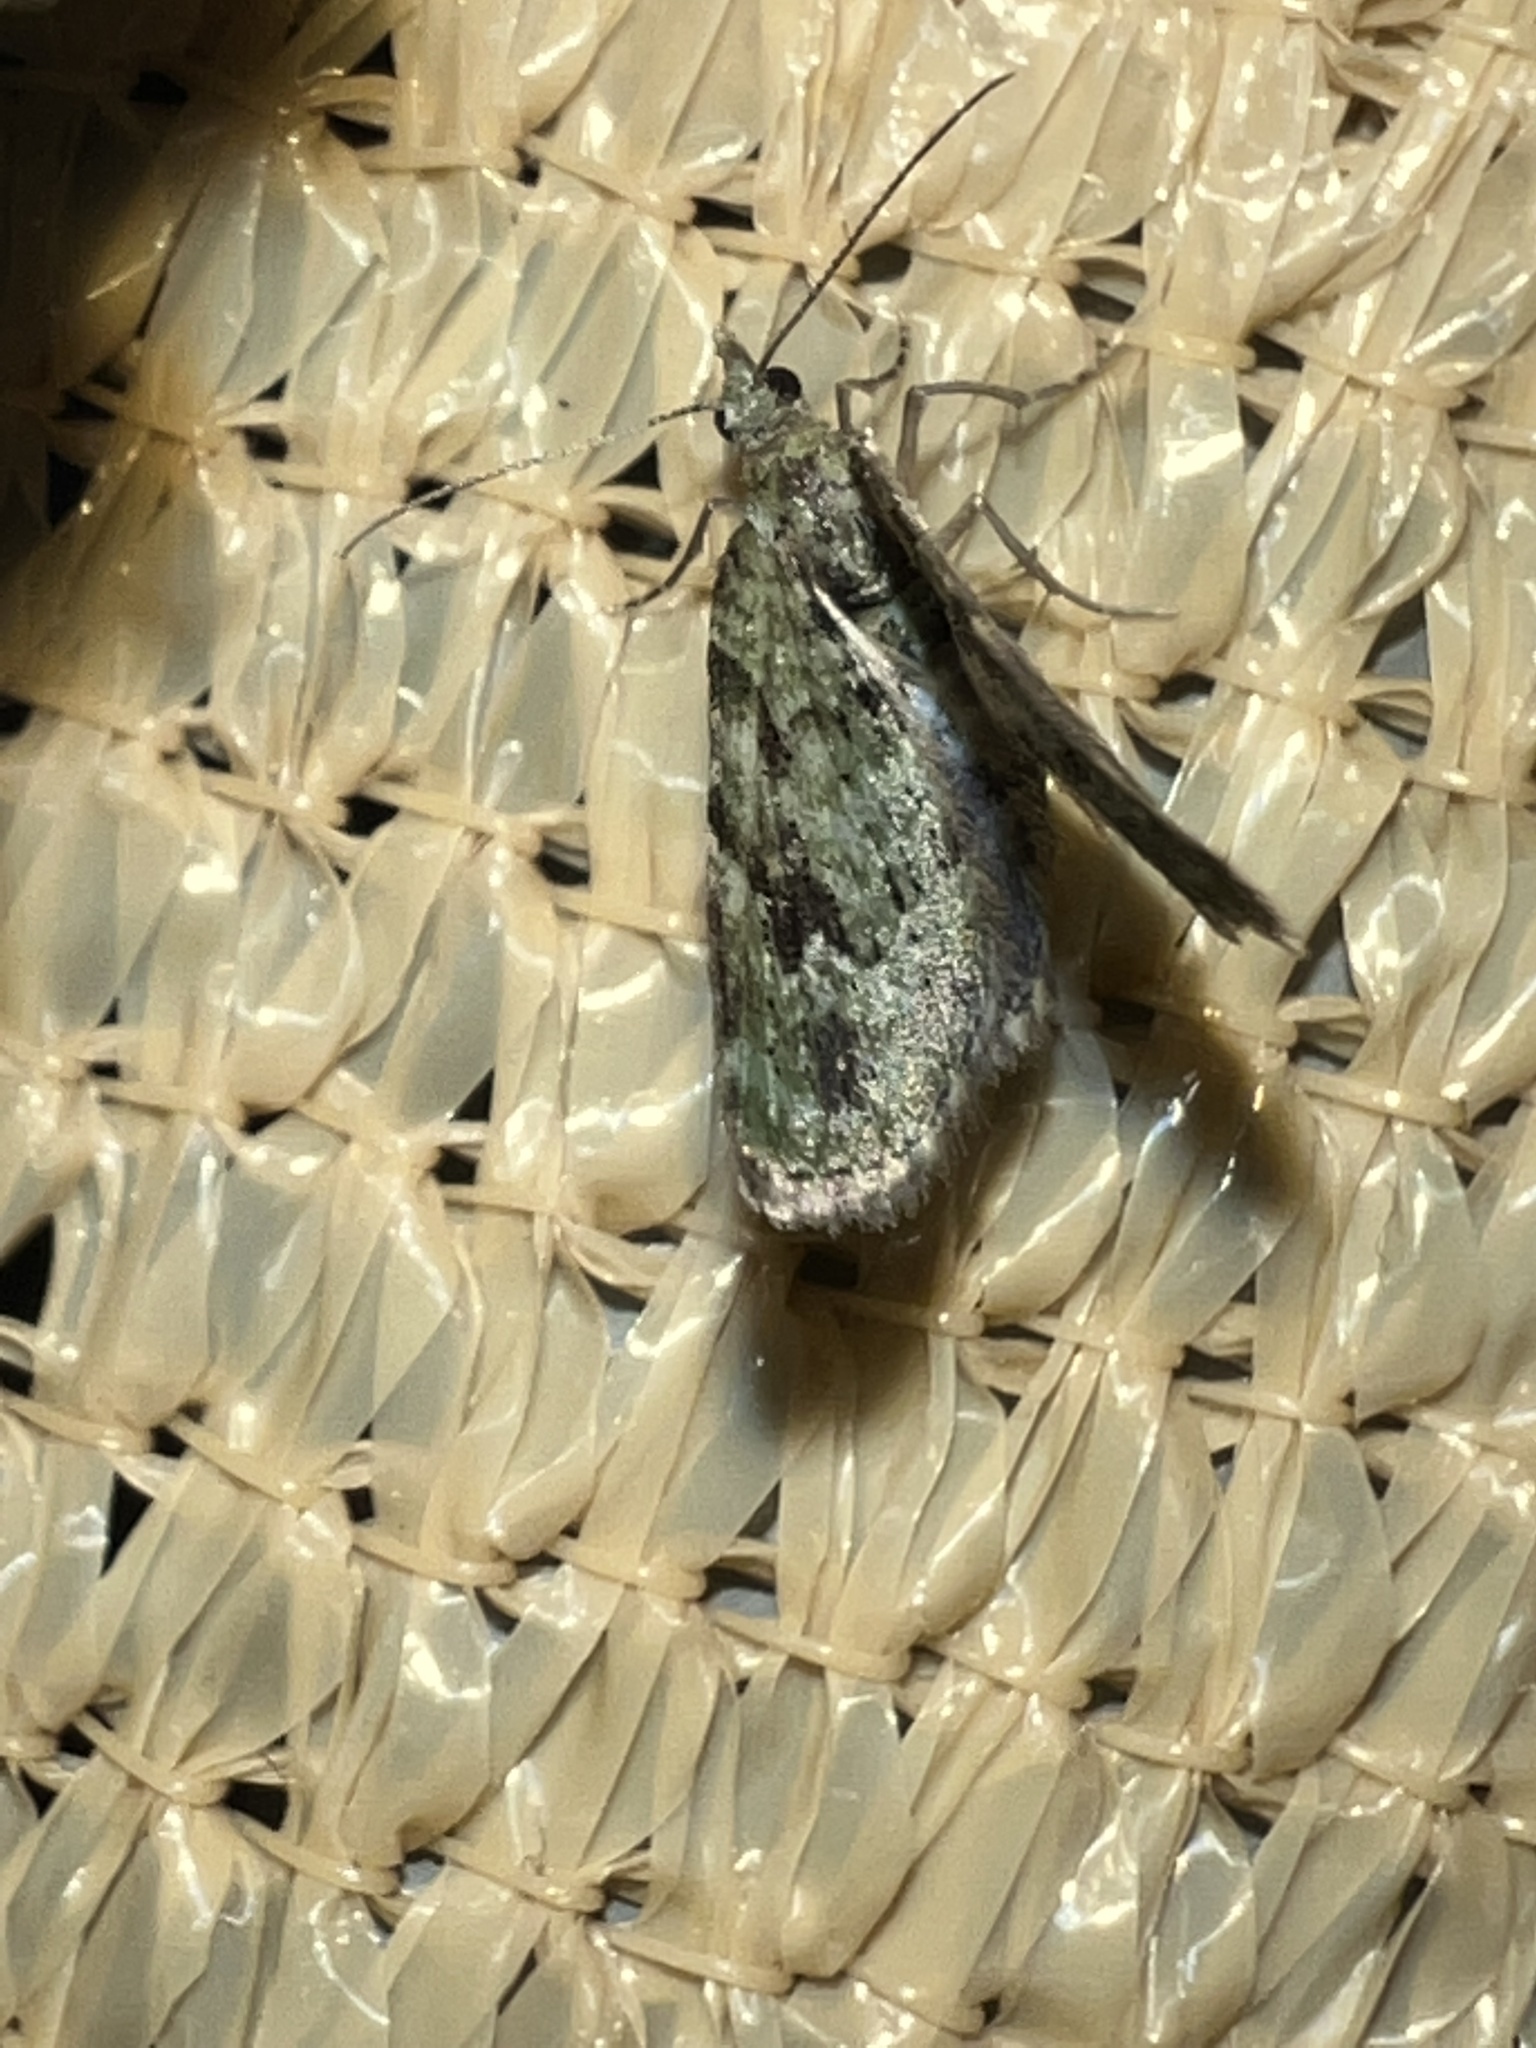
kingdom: Animalia
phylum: Arthropoda
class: Insecta
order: Lepidoptera
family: Geometridae
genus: Chloroclystis
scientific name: Chloroclystis v-ata
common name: V-pug
